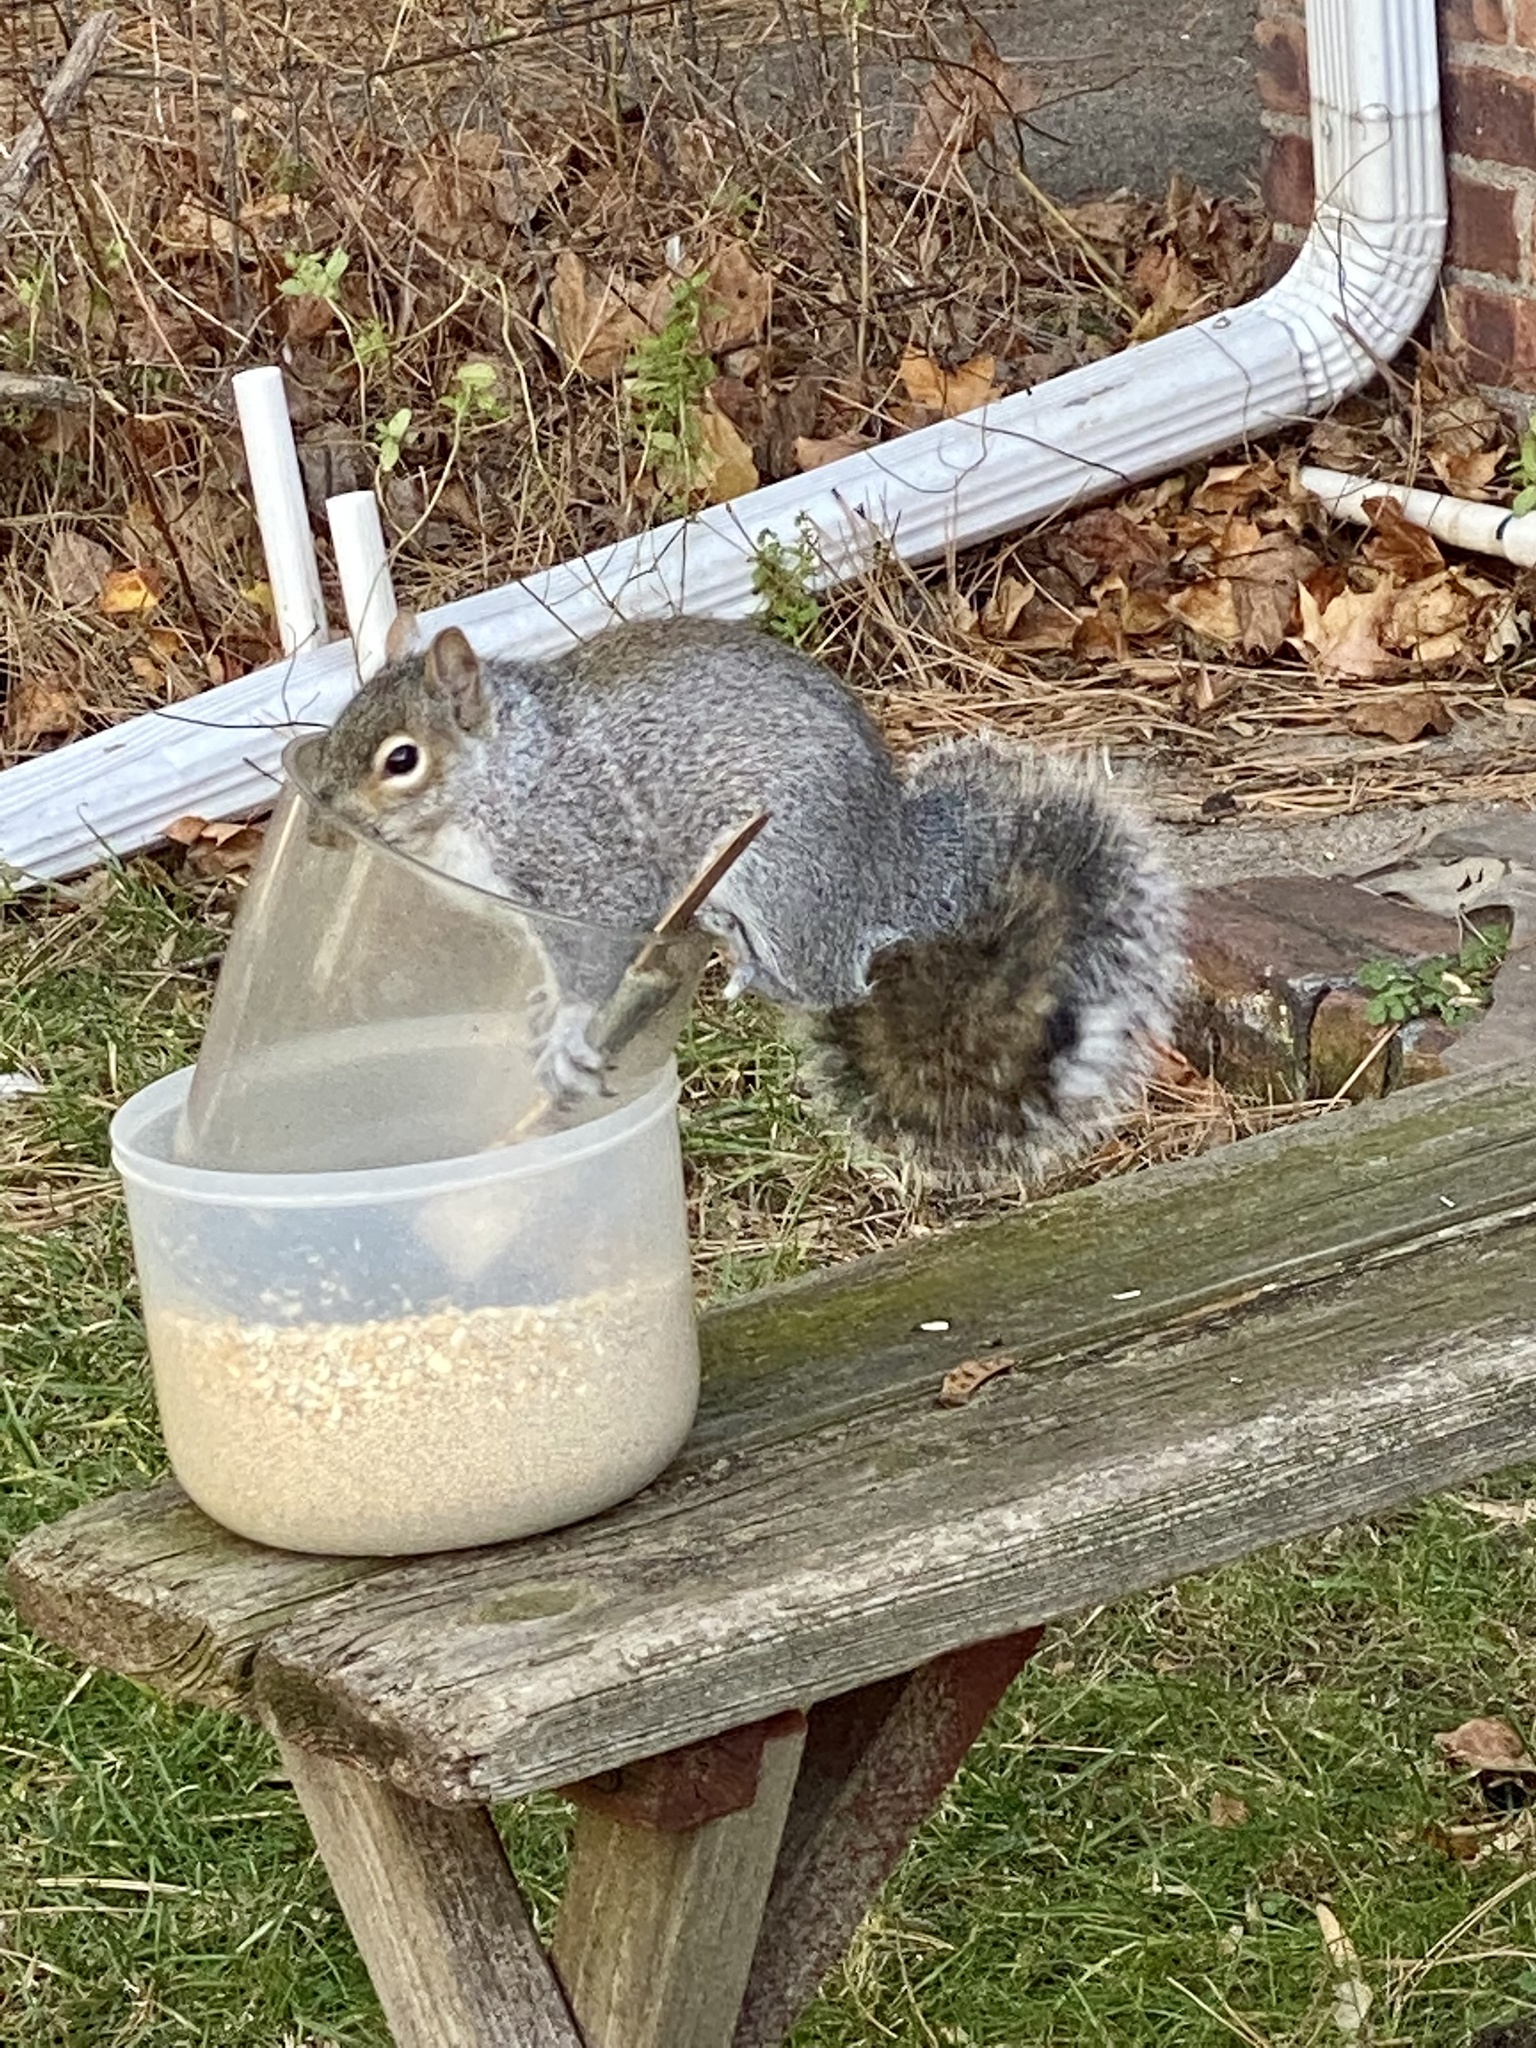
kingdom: Animalia
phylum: Chordata
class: Mammalia
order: Rodentia
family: Sciuridae
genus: Sciurus
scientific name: Sciurus carolinensis
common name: Eastern gray squirrel
